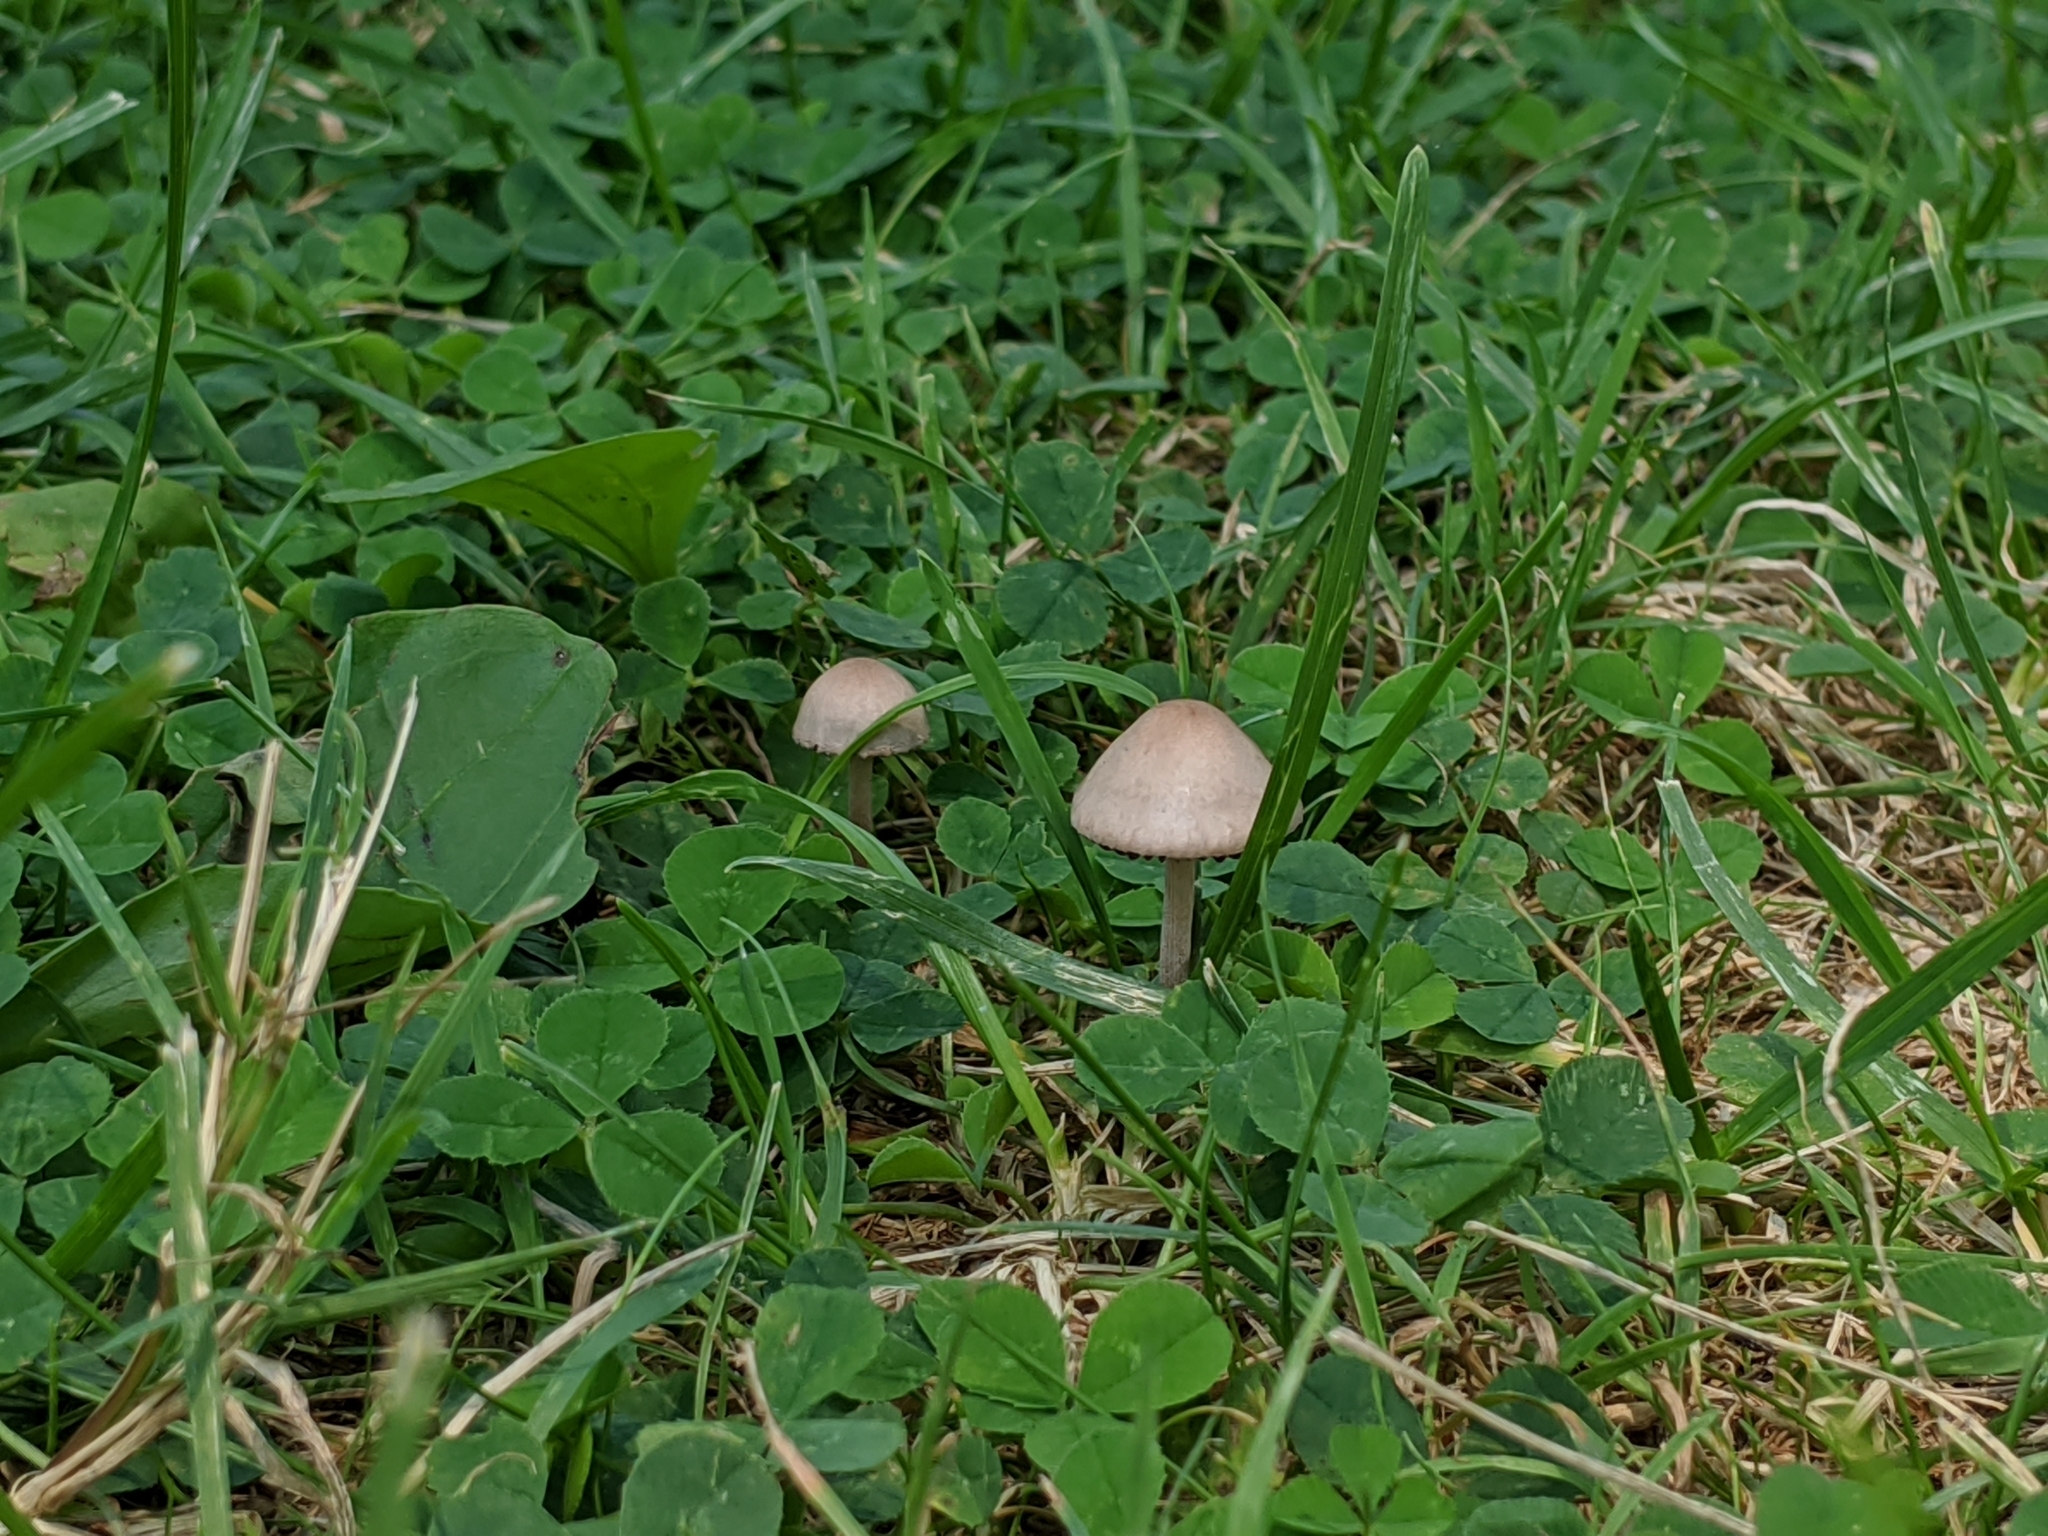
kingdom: Fungi
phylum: Basidiomycota
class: Agaricomycetes
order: Agaricales
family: Bolbitiaceae
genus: Panaeolina
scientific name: Panaeolina foenisecii
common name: Brown hay cap
